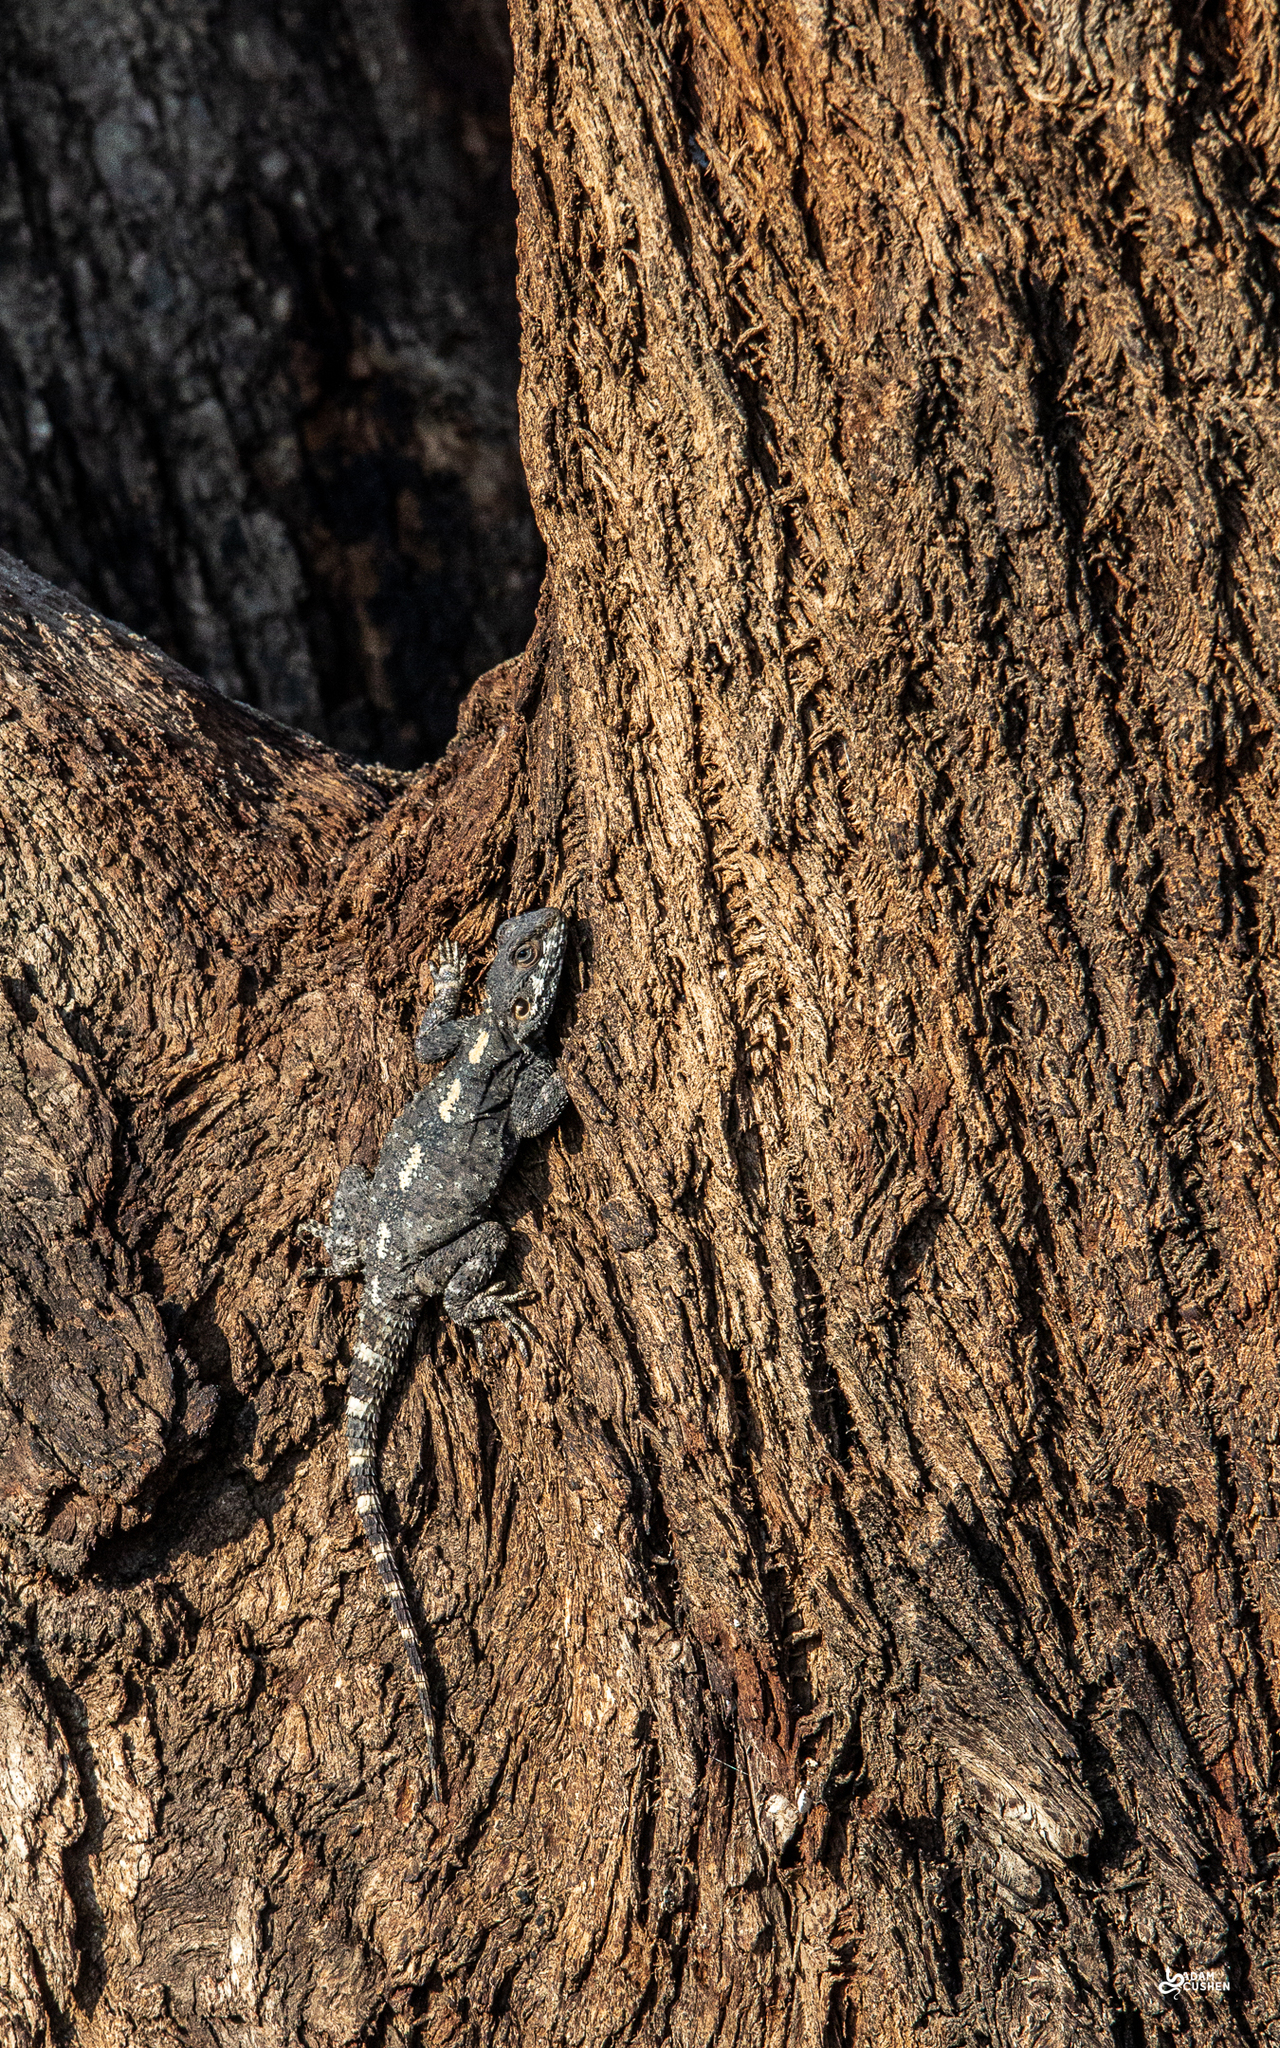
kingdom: Animalia
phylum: Chordata
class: Squamata
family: Agamidae
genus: Laudakia
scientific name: Laudakia vulgaris
